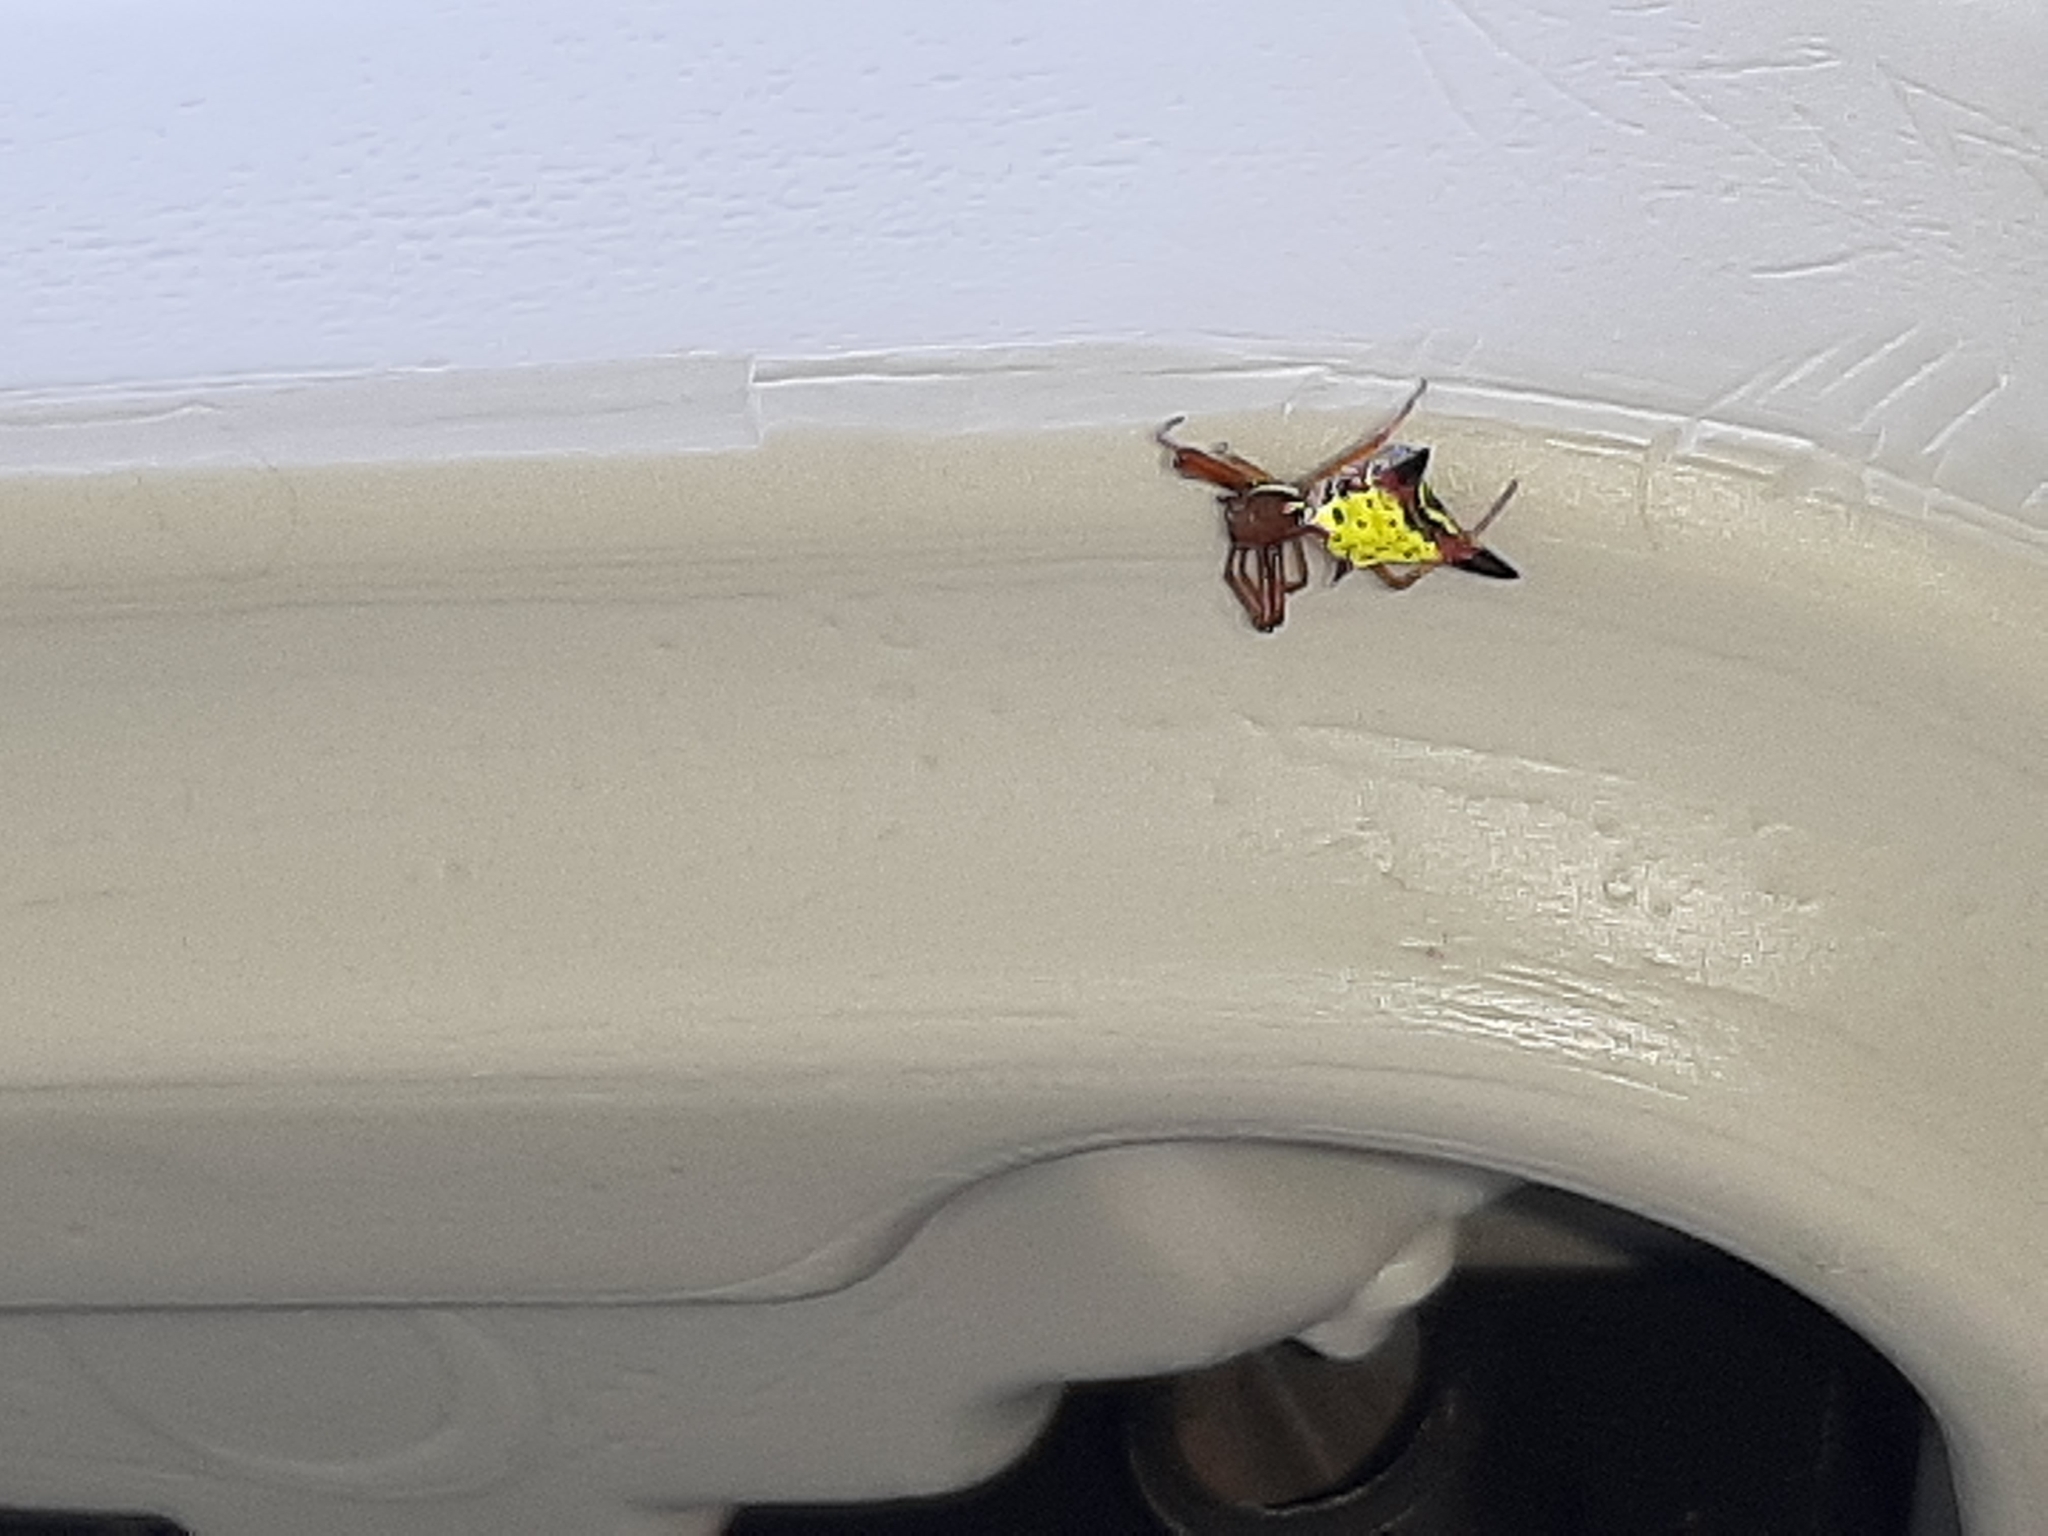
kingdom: Animalia
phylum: Arthropoda
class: Arachnida
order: Araneae
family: Araneidae
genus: Micrathena
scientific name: Micrathena sagittata
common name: Orb weavers
